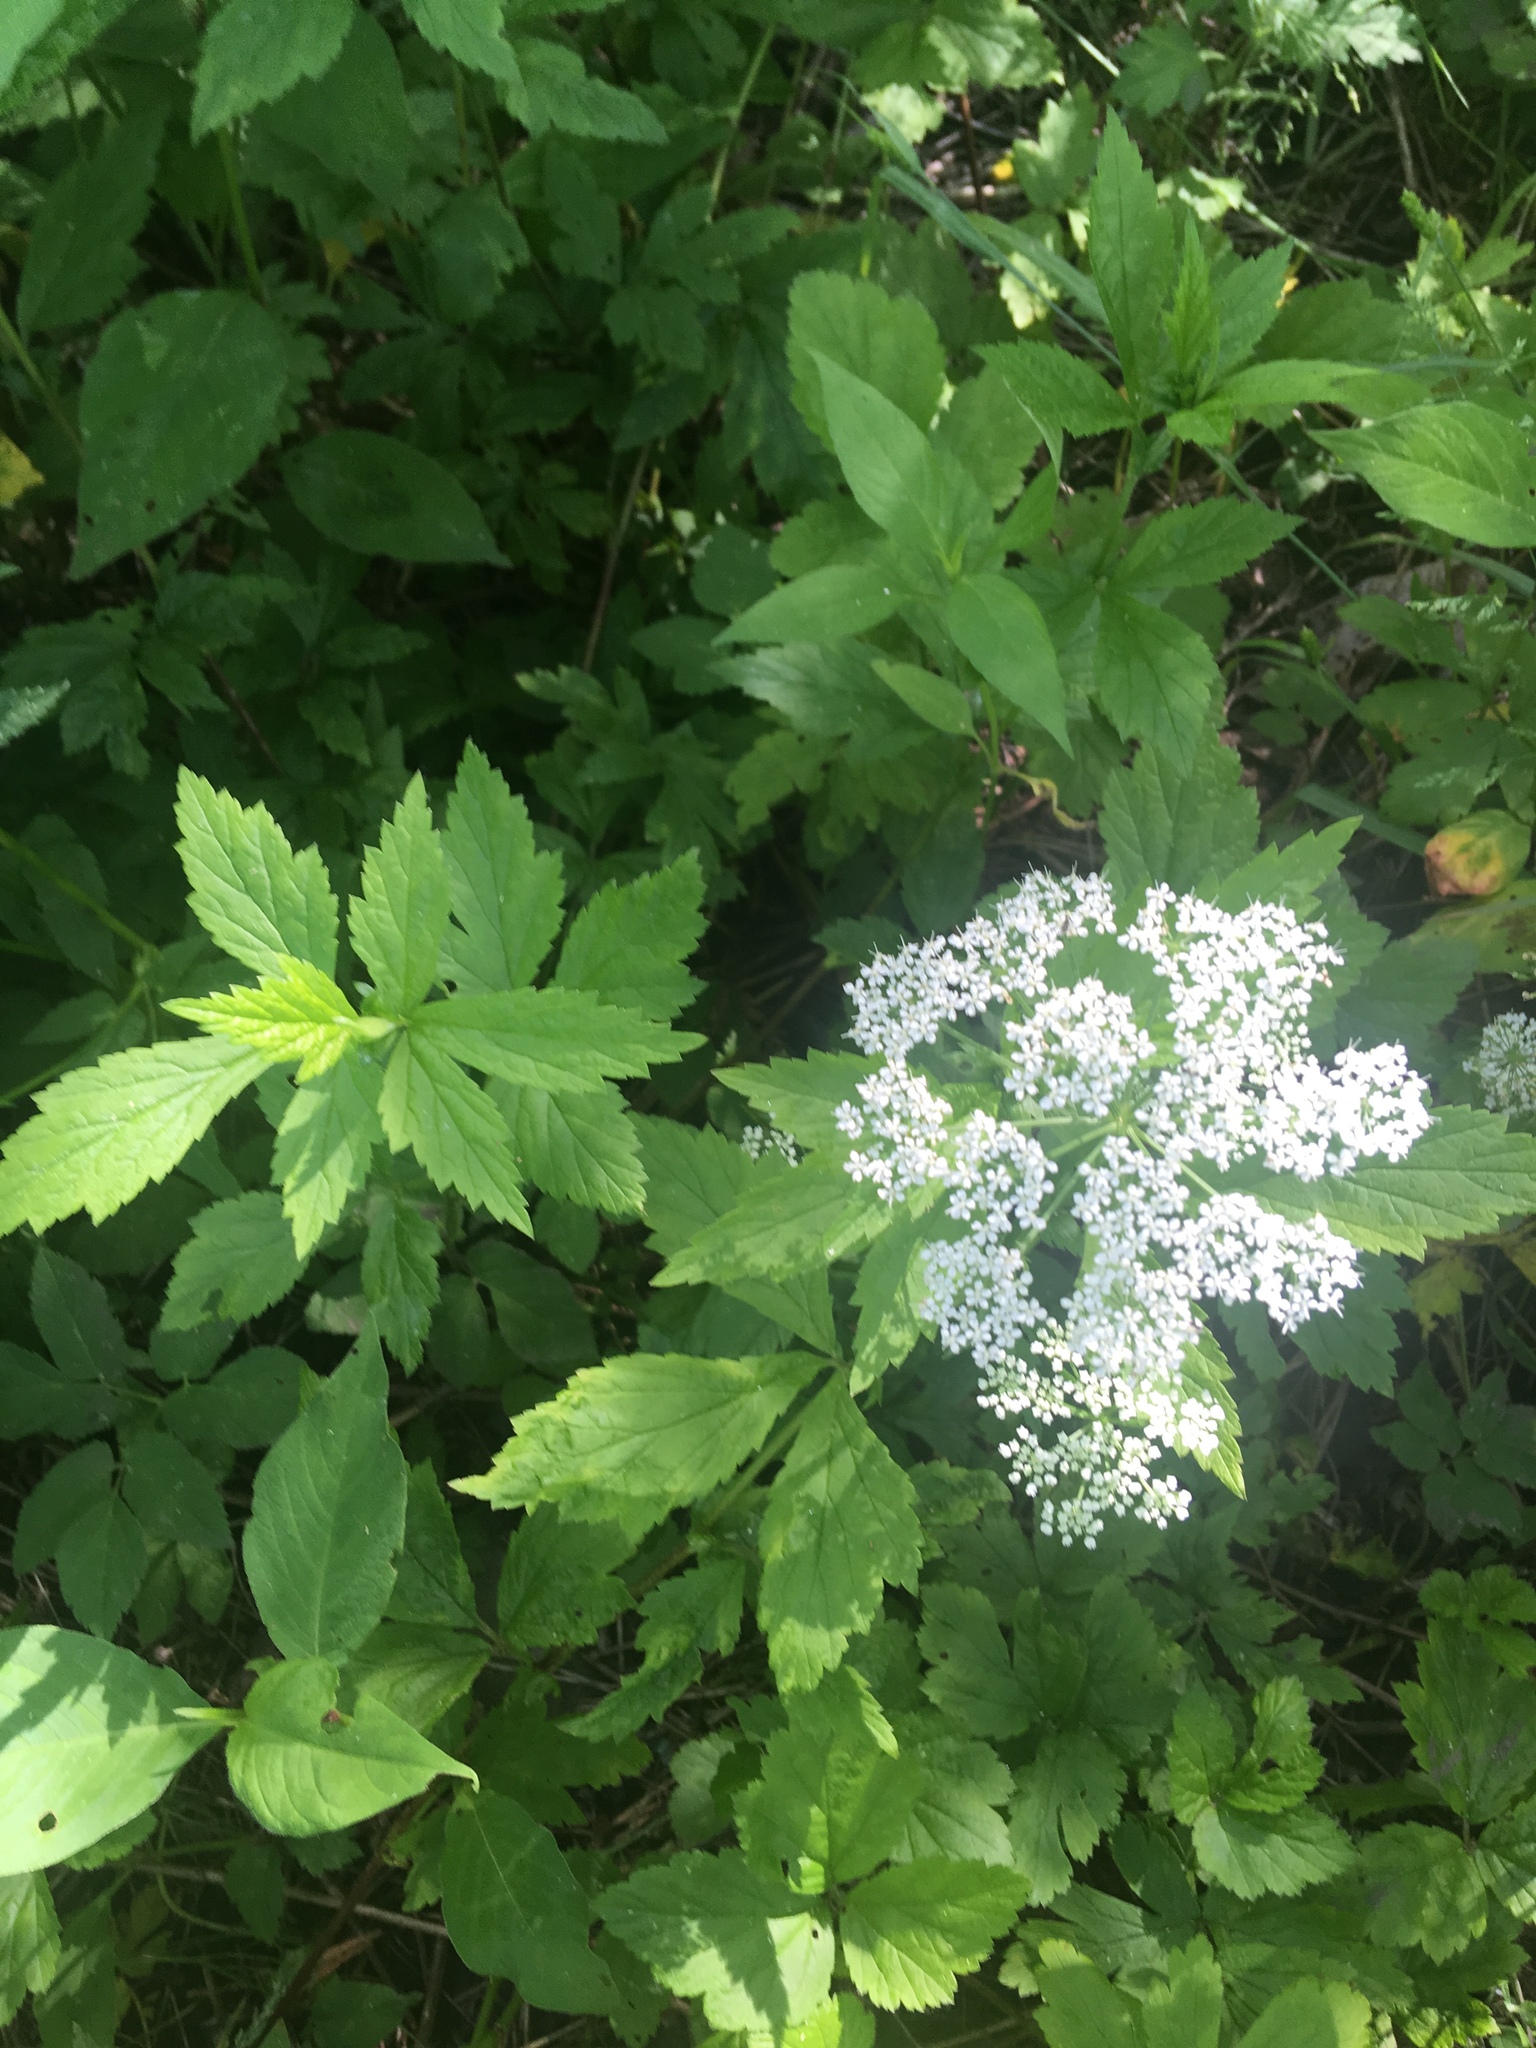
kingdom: Plantae
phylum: Tracheophyta
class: Magnoliopsida
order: Apiales
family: Apiaceae
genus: Aegopodium
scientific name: Aegopodium podagraria
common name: Ground-elder
